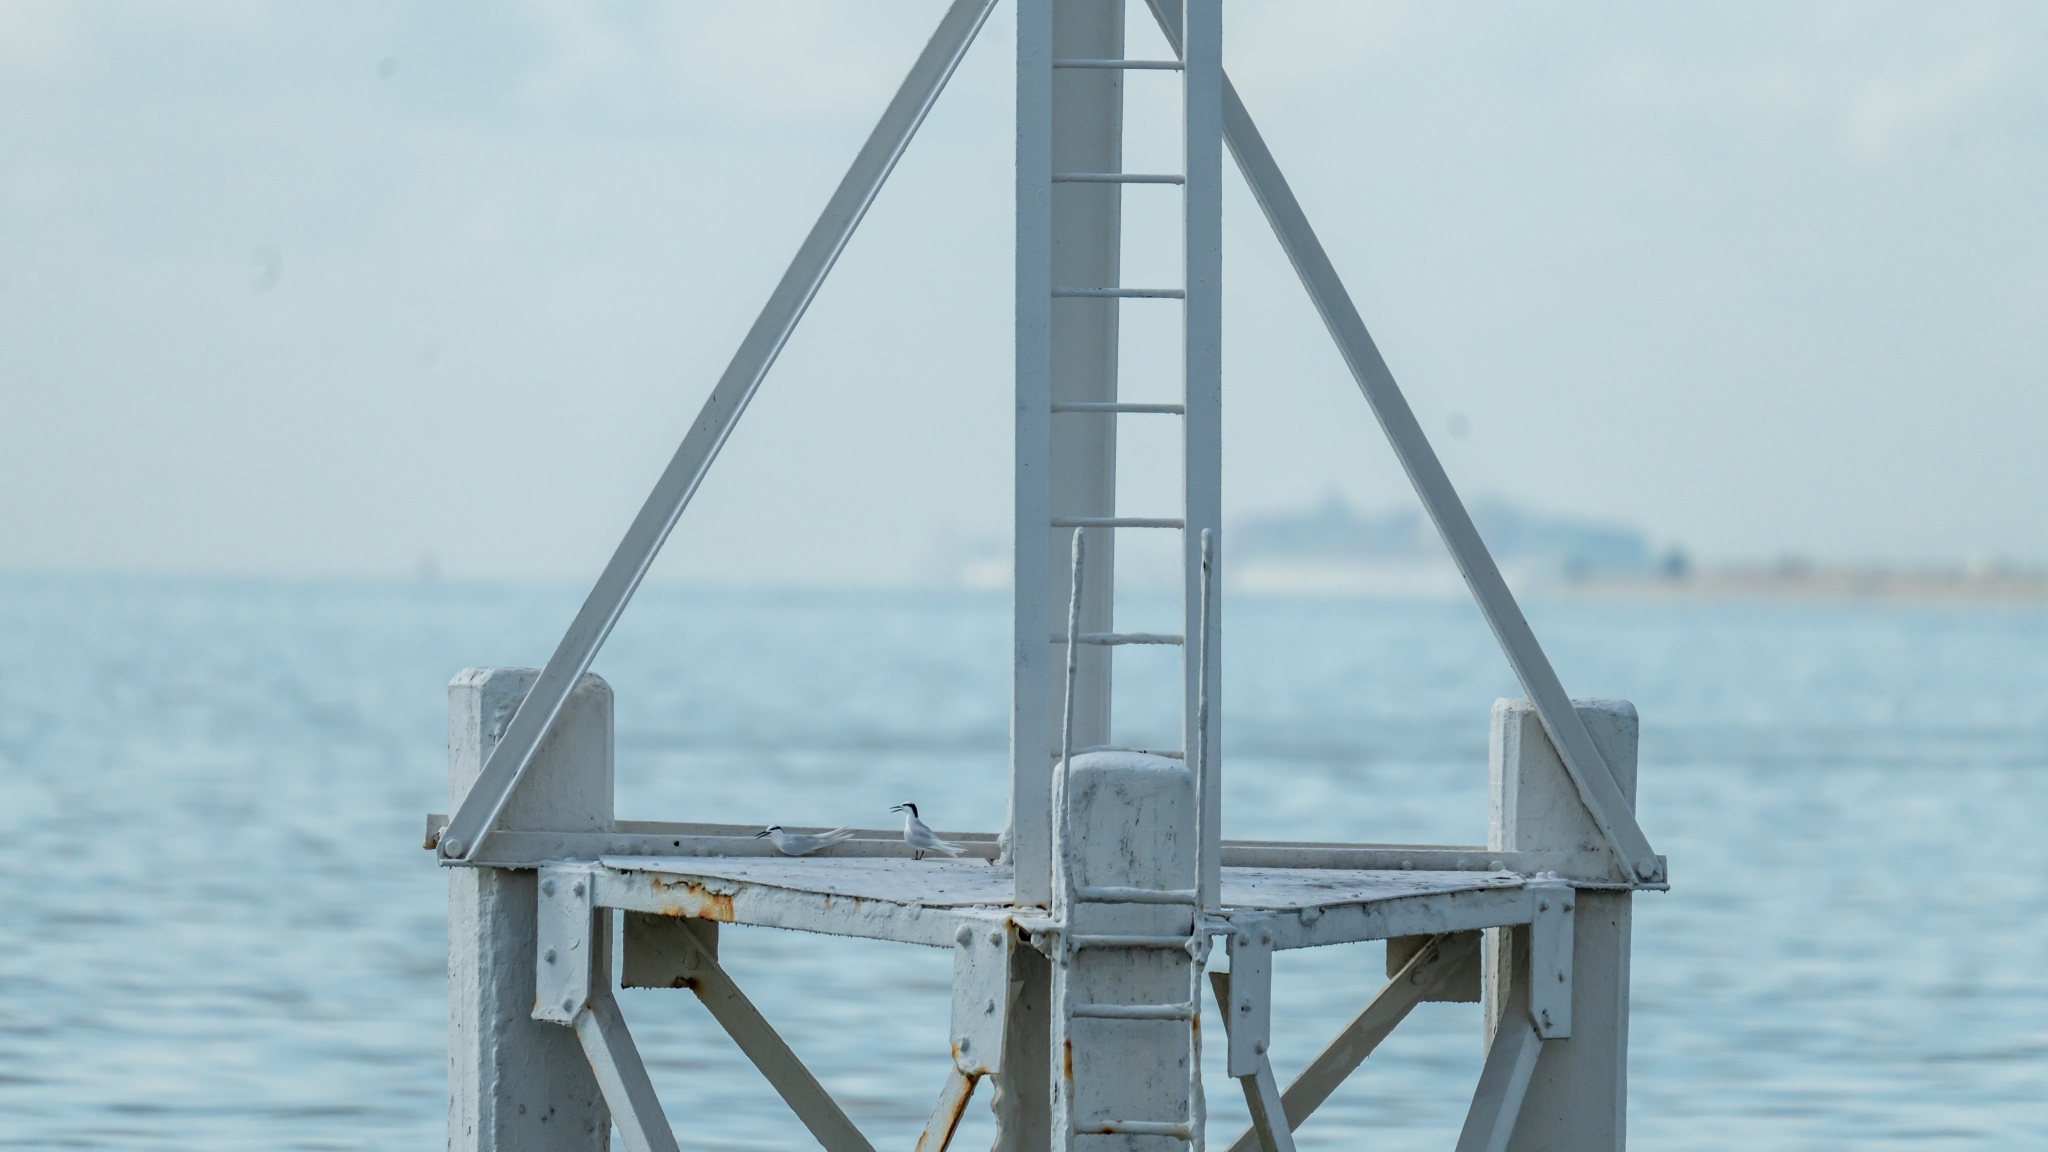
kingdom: Animalia
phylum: Chordata
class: Aves
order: Charadriiformes
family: Laridae
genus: Sterna
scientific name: Sterna sumatrana
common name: Black-naped tern
